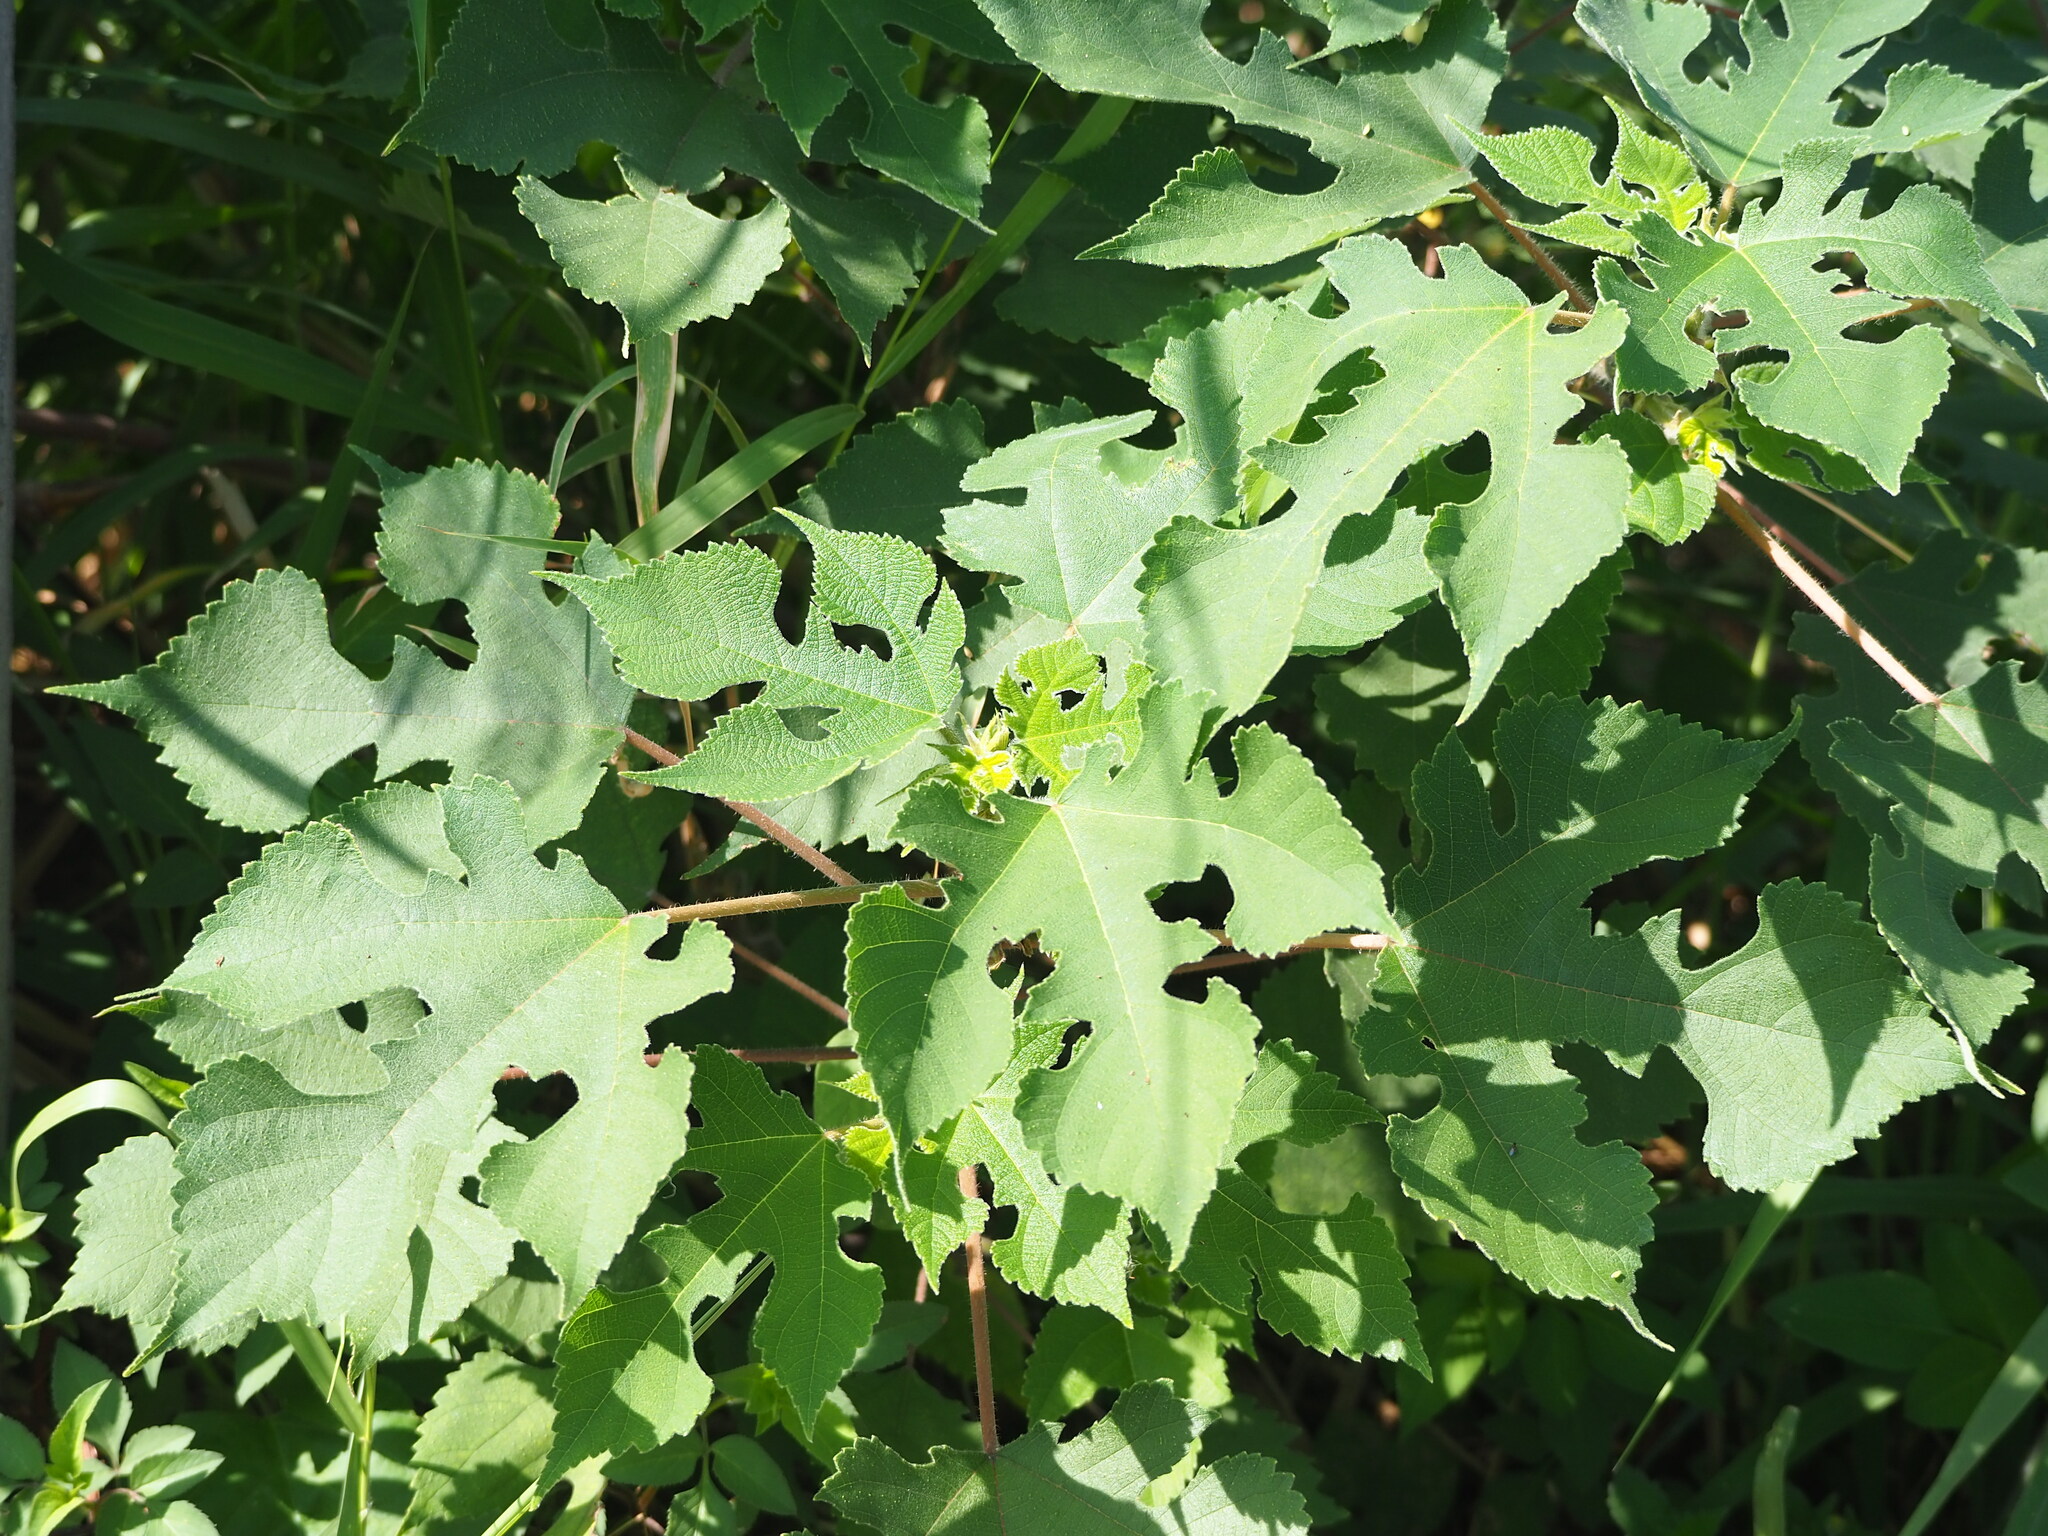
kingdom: Plantae
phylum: Tracheophyta
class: Magnoliopsida
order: Rosales
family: Moraceae
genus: Broussonetia
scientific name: Broussonetia papyrifera
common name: Paper mulberry
